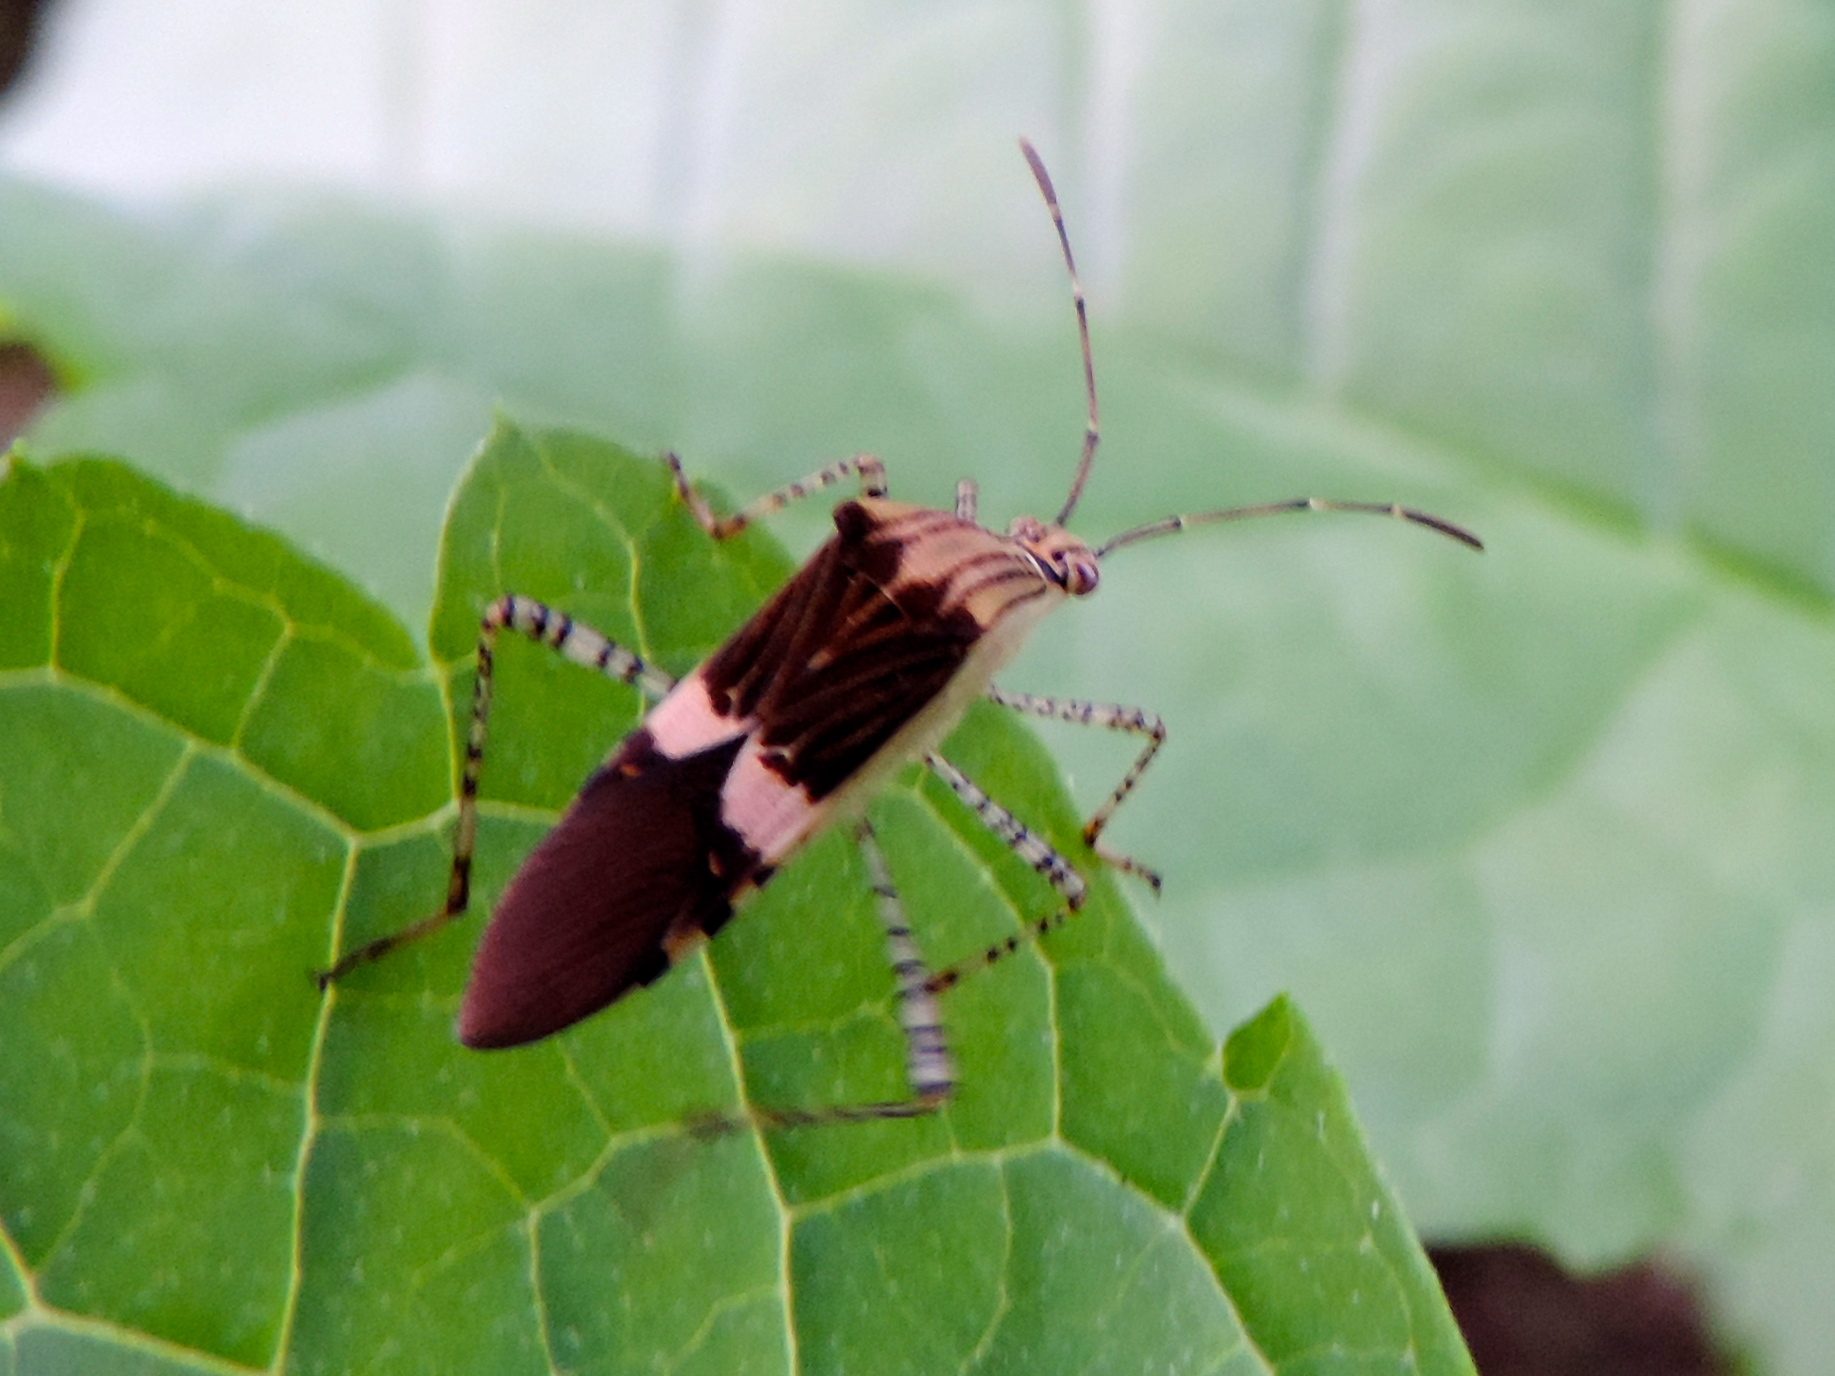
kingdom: Animalia
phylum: Arthropoda
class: Insecta
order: Hemiptera
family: Coreidae
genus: Hypselonotus
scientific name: Hypselonotus lineatus
